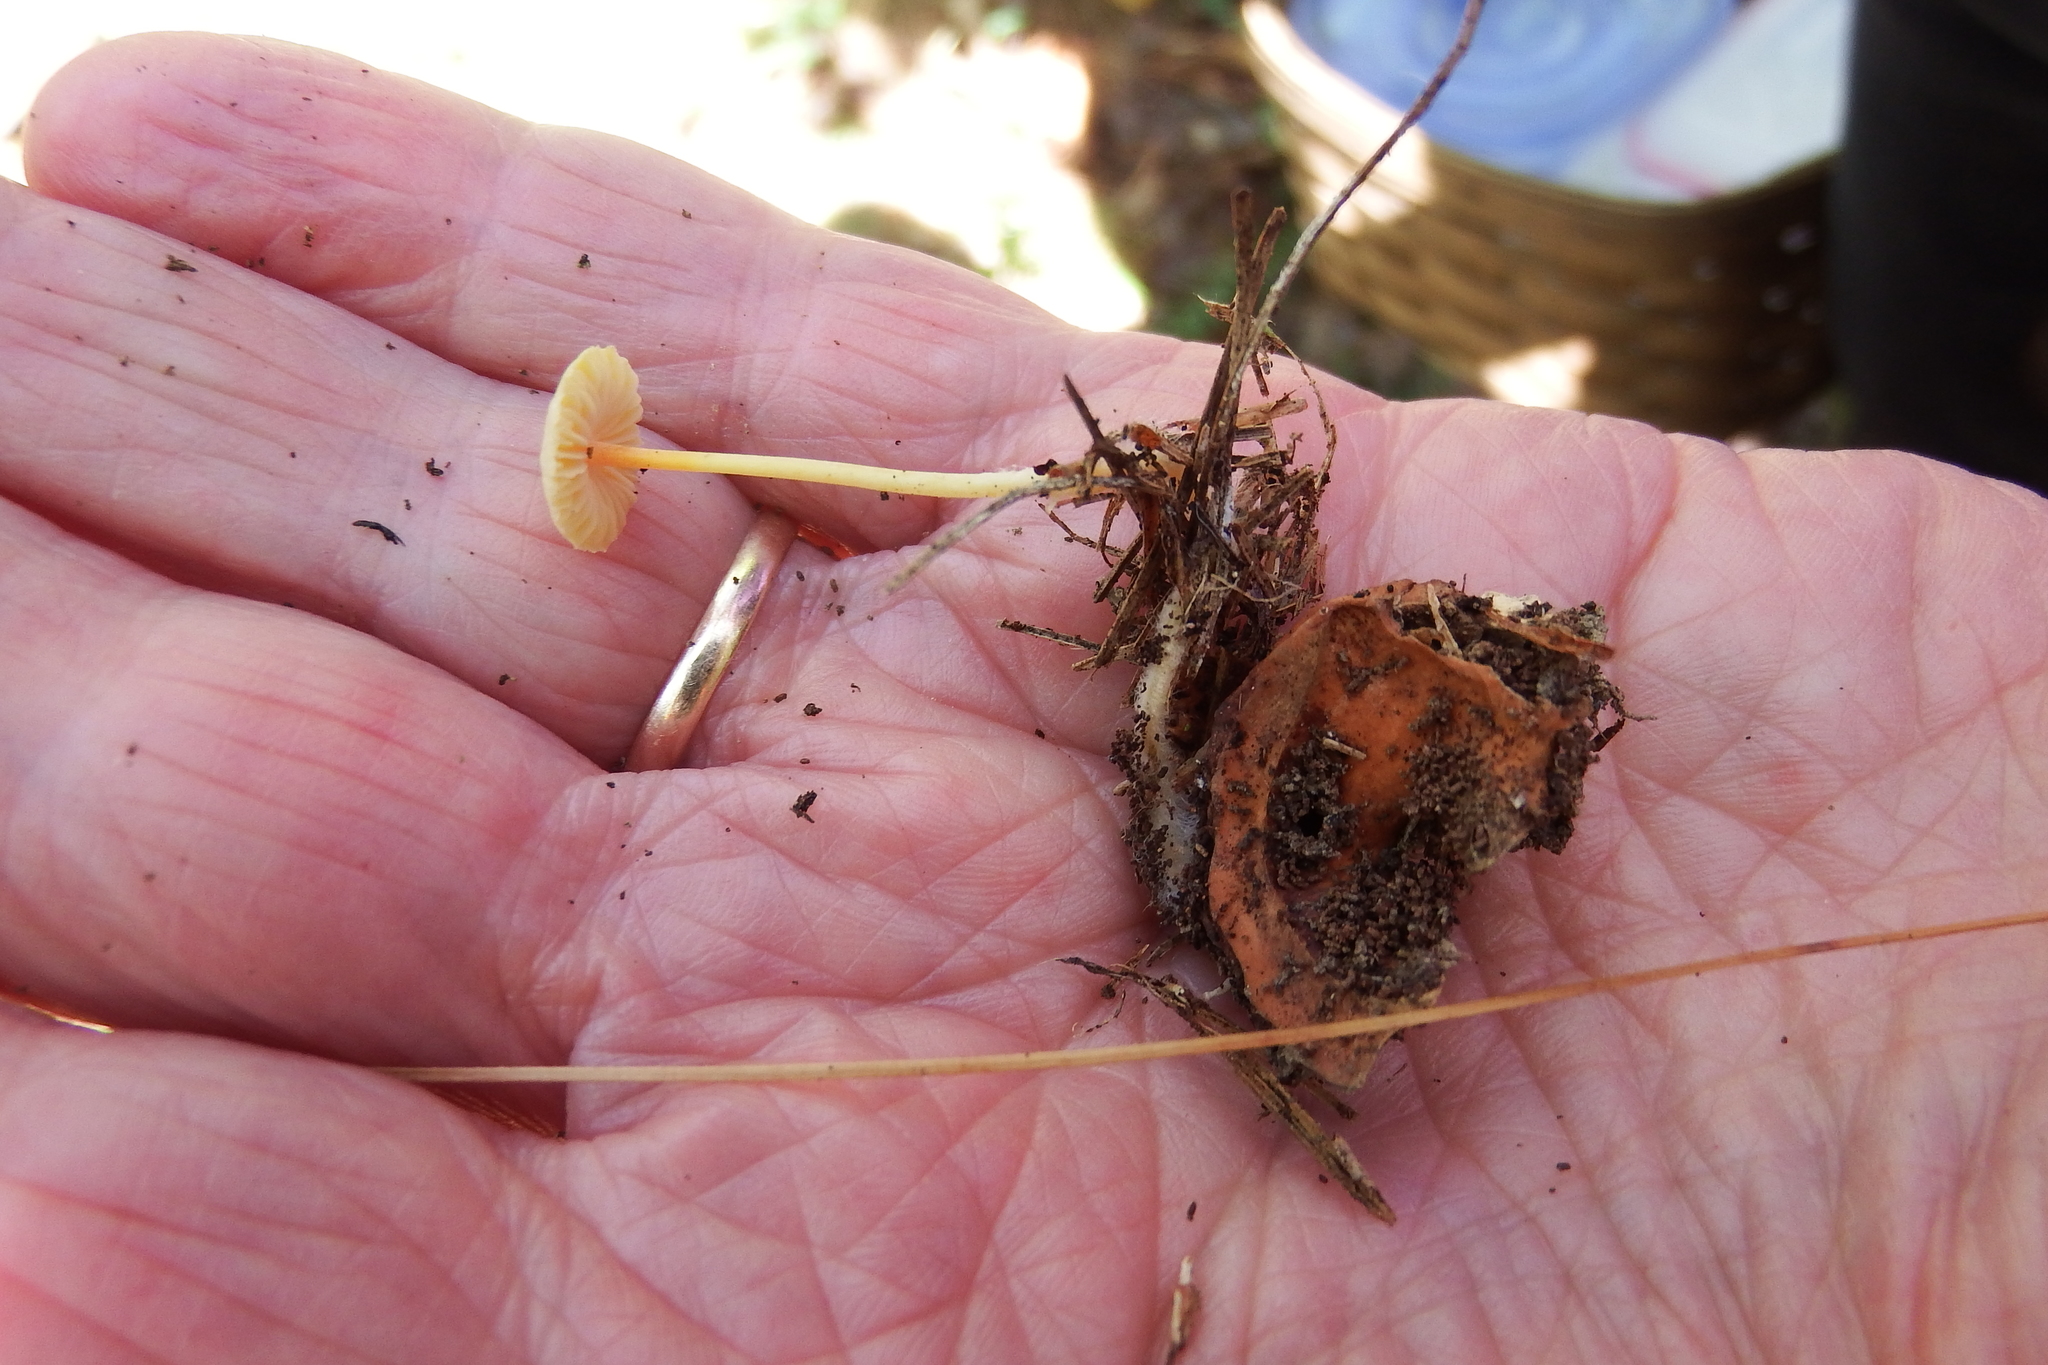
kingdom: Fungi
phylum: Basidiomycota
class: Agaricomycetes
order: Agaricales
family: Mycenaceae
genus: Mycena
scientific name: Mycena crocea
